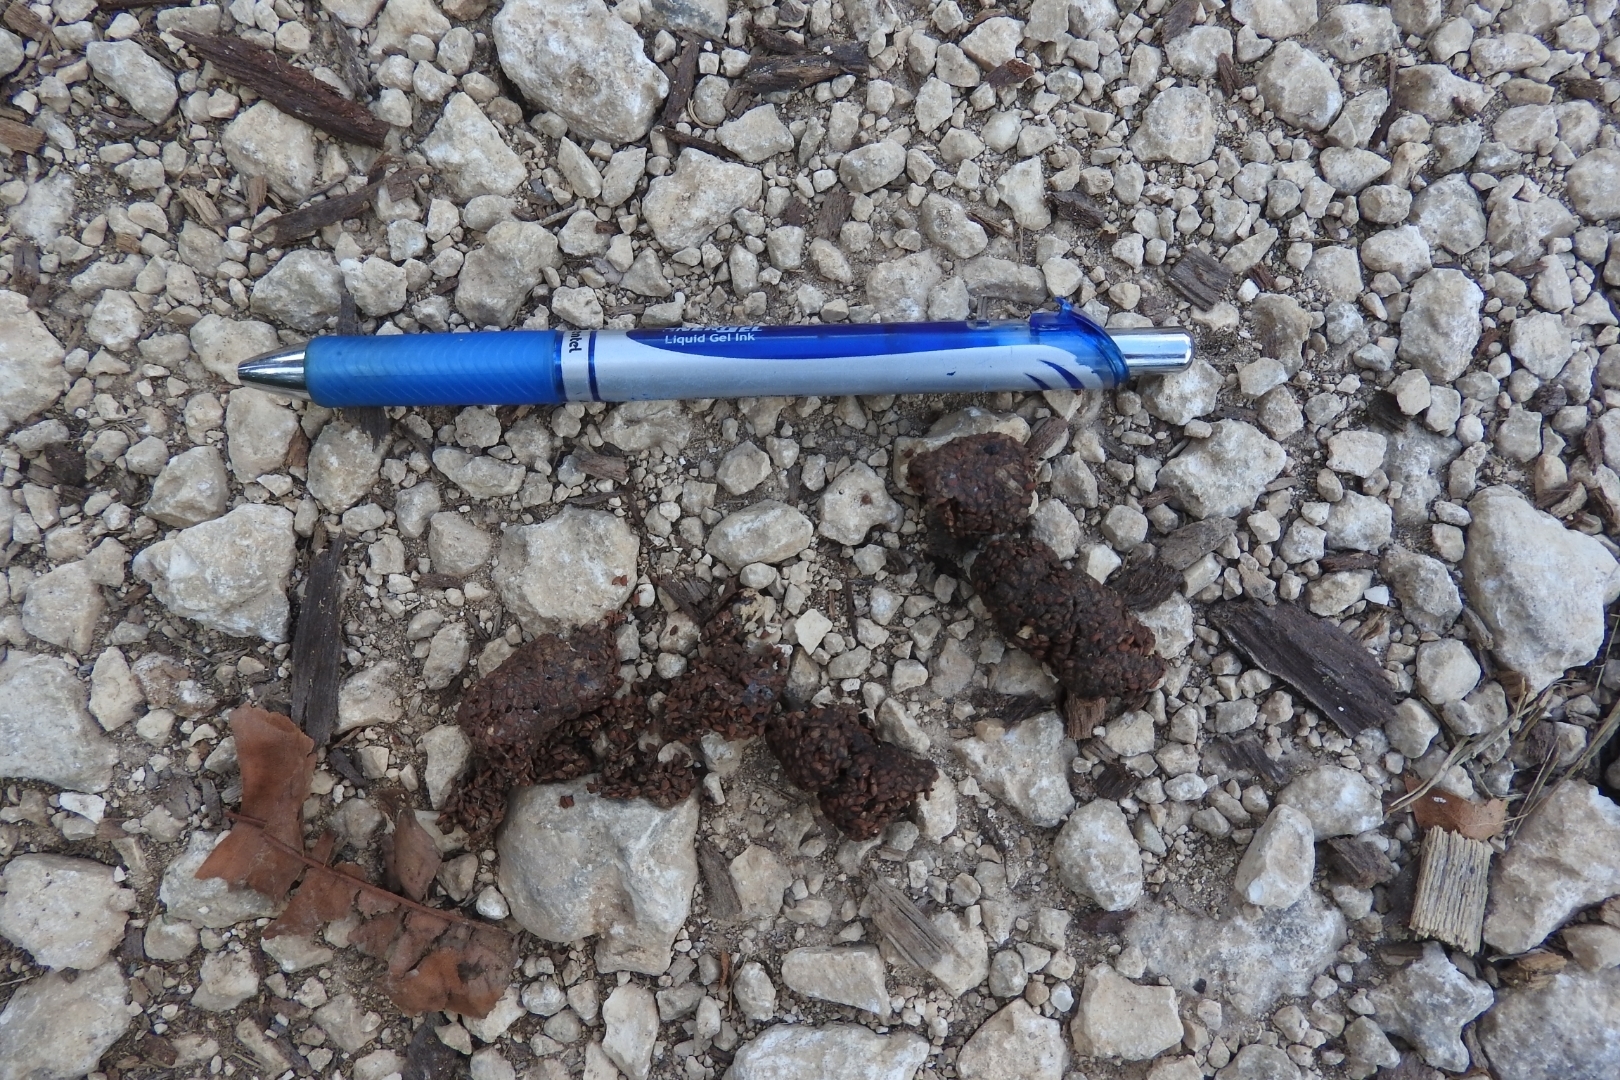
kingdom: Animalia
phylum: Chordata
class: Mammalia
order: Carnivora
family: Canidae
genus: Urocyon
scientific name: Urocyon cinereoargenteus
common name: Gray fox
